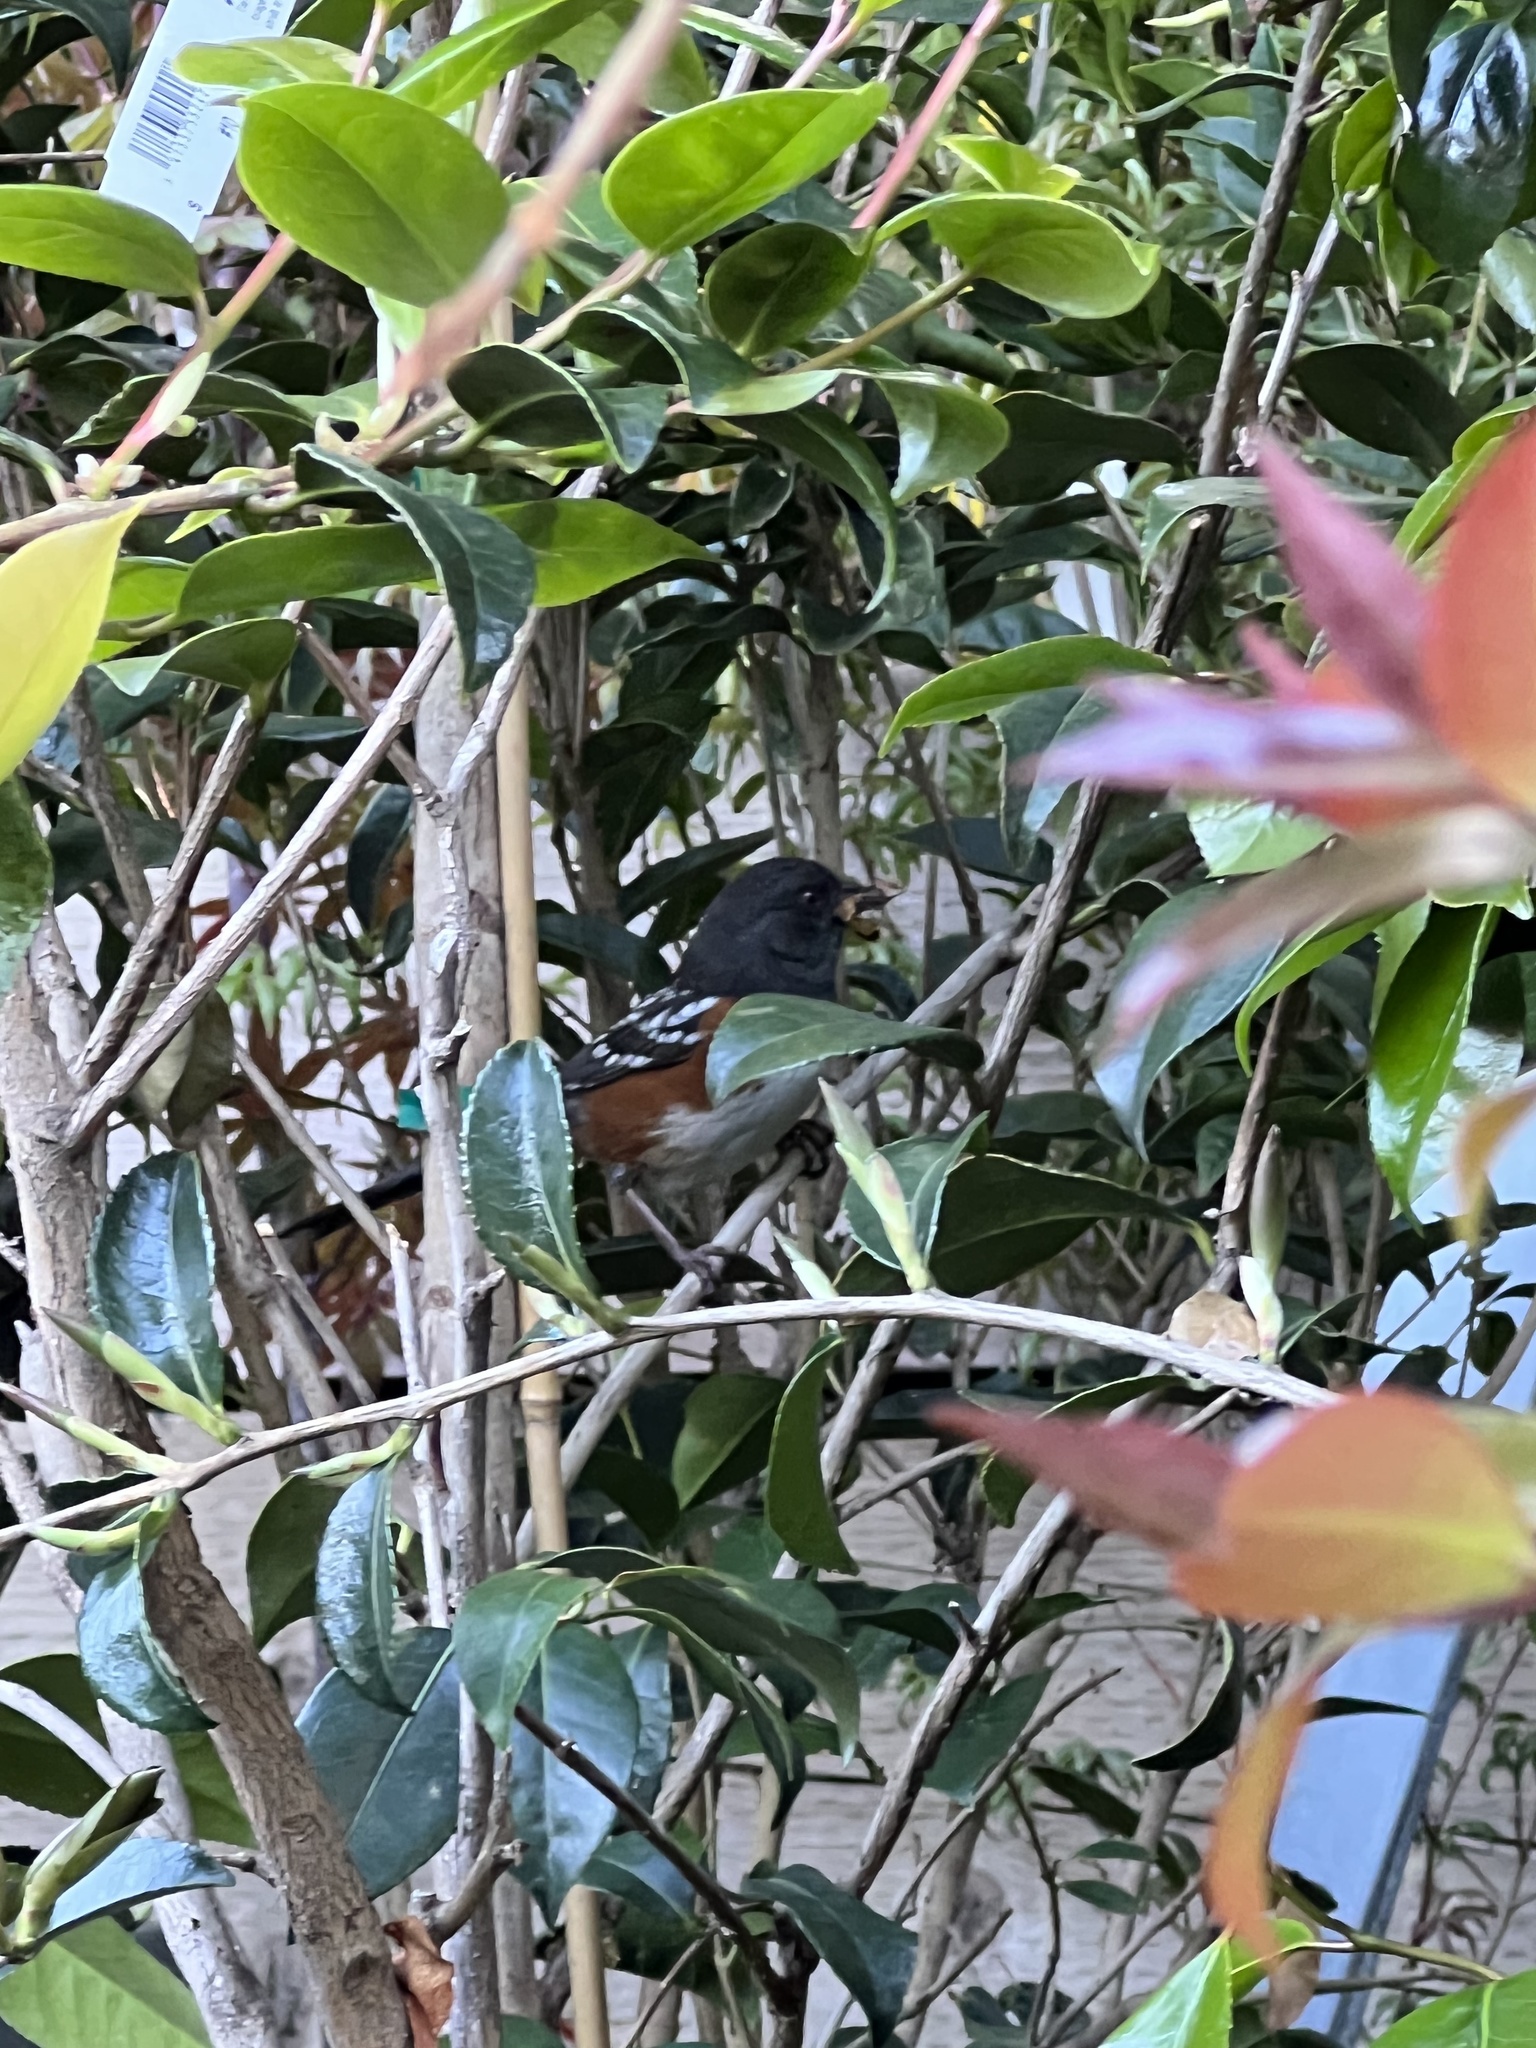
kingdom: Animalia
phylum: Chordata
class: Aves
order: Passeriformes
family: Passerellidae
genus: Pipilo
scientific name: Pipilo maculatus
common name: Spotted towhee
